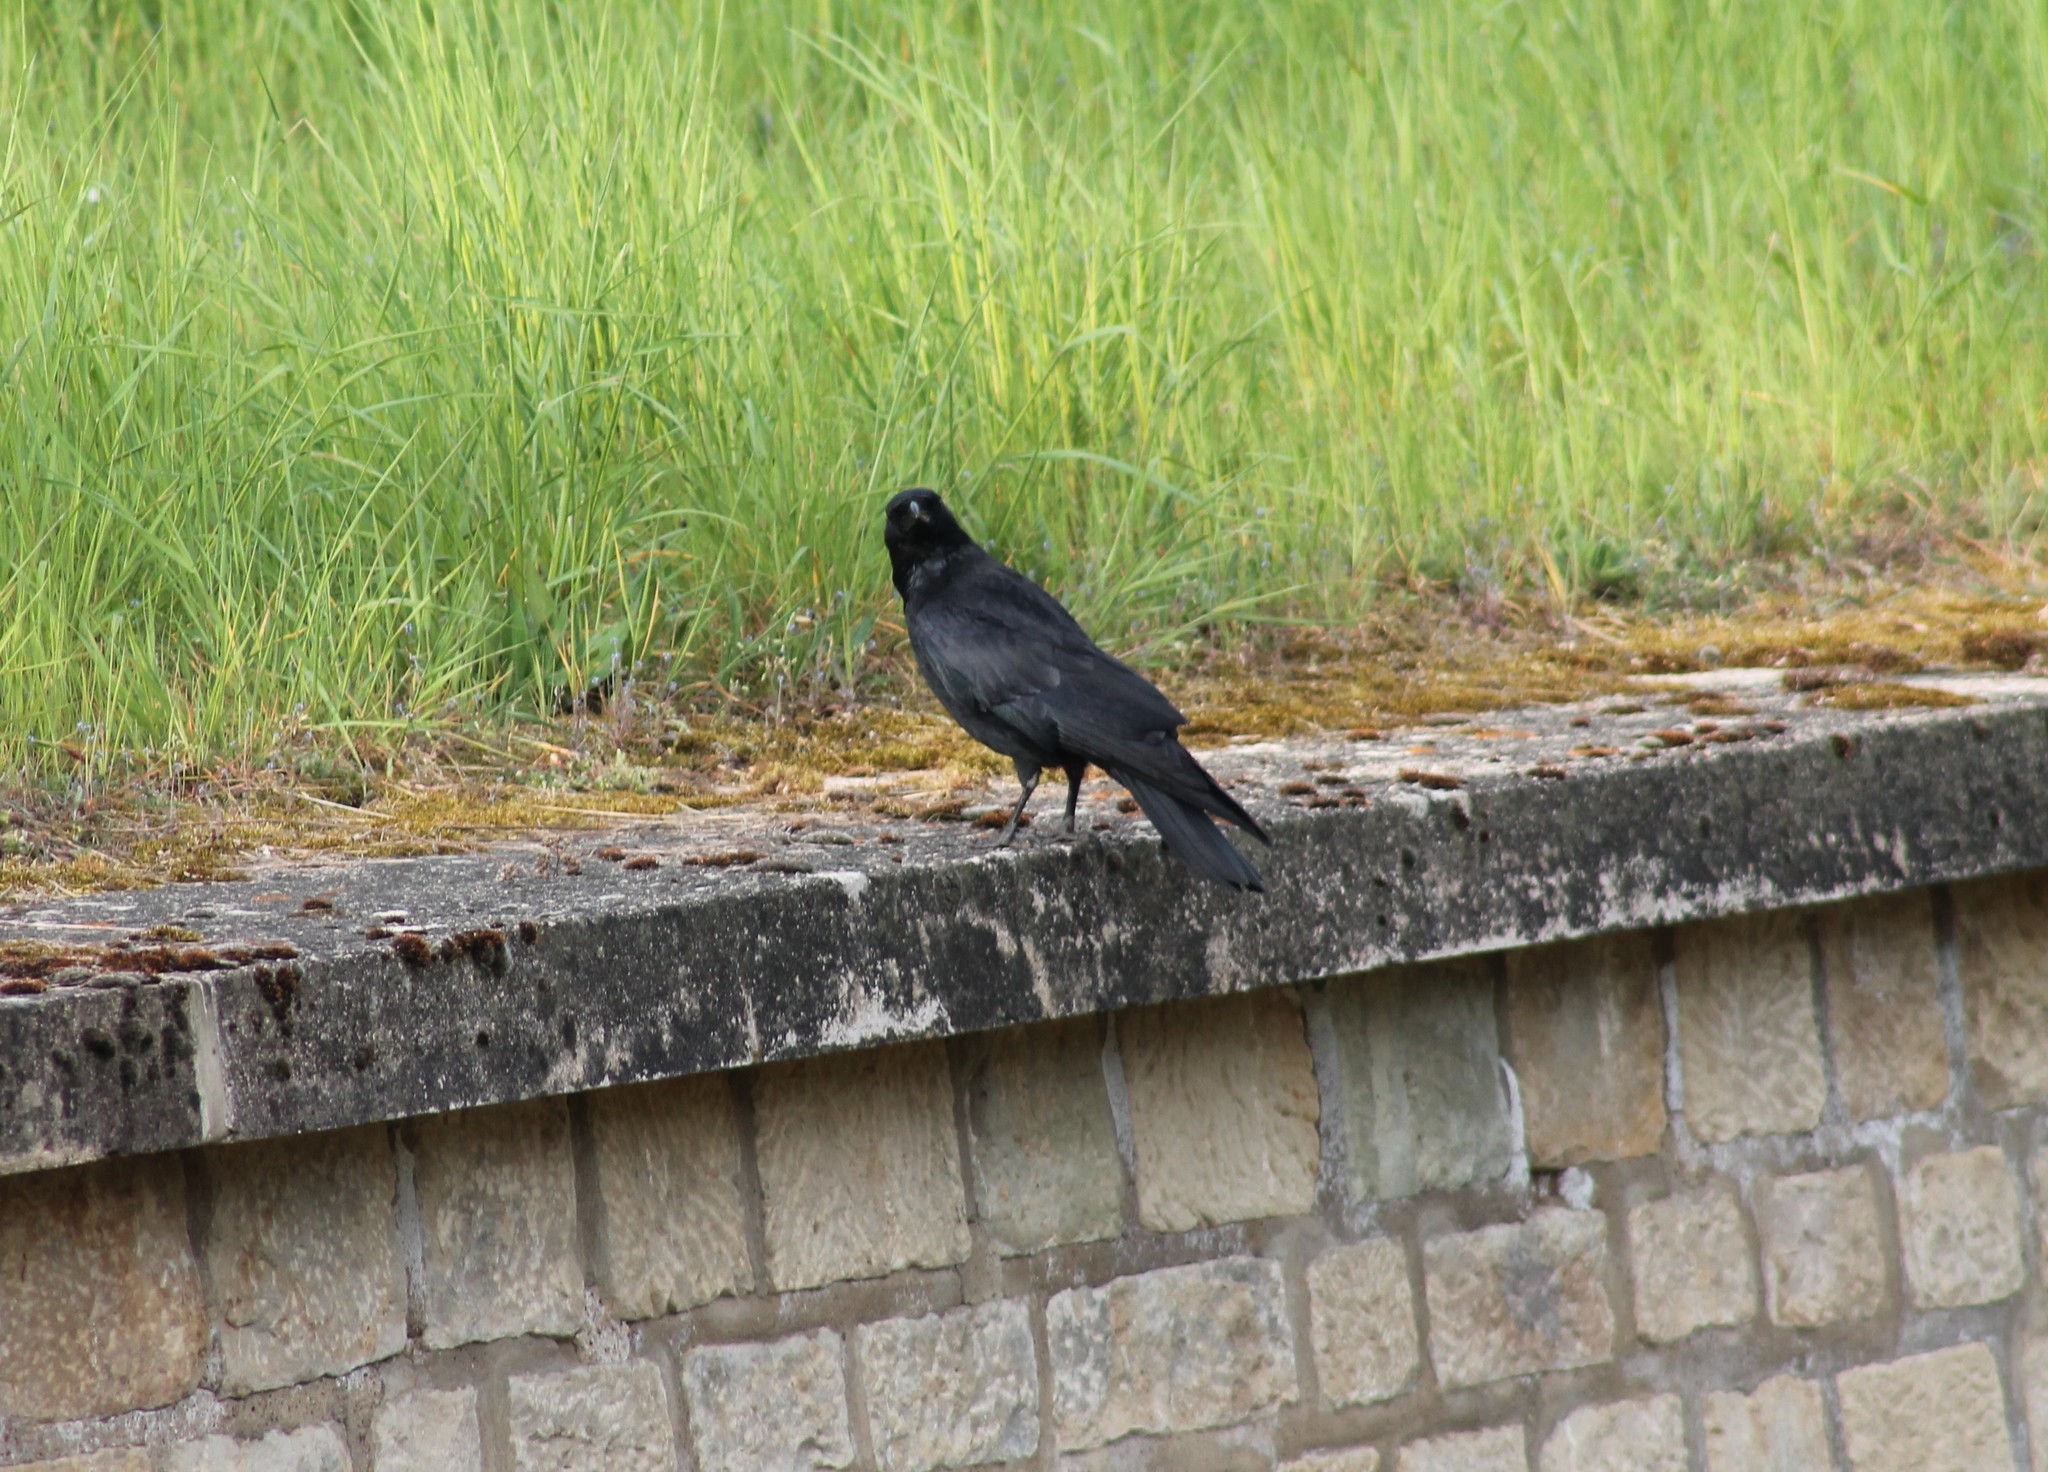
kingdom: Animalia
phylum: Chordata
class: Aves
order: Passeriformes
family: Corvidae
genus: Corvus
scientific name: Corvus corone
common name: Carrion crow
